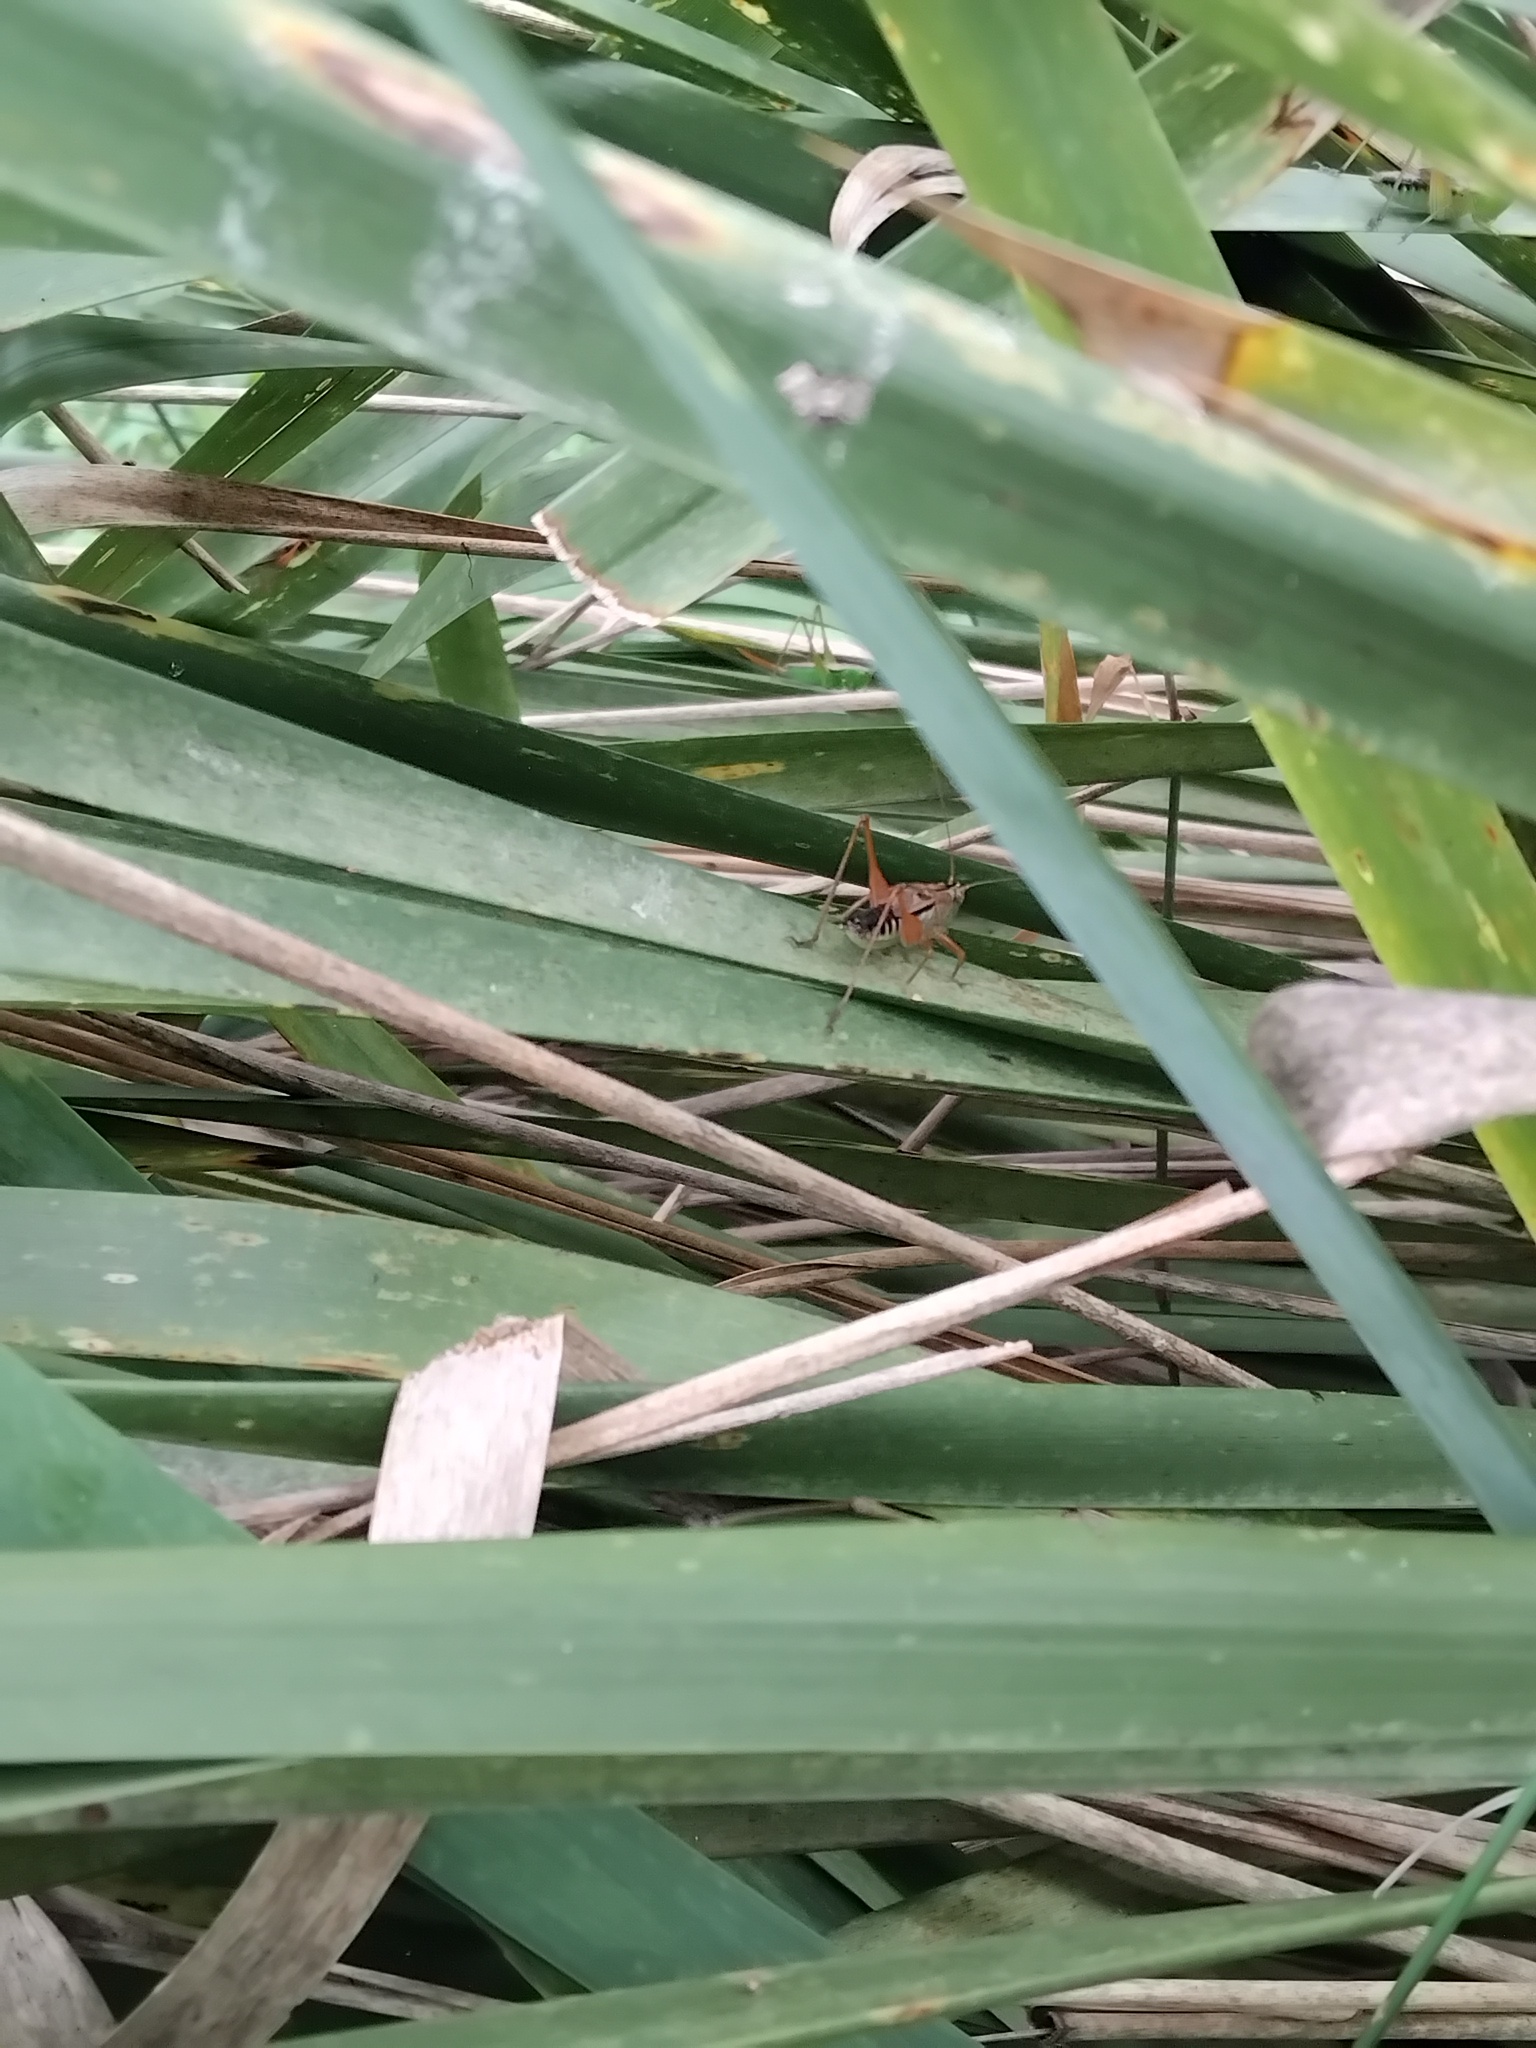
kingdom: Animalia
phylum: Arthropoda
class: Insecta
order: Orthoptera
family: Tettigoniidae
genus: Conocephalus
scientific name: Conocephalus semivittatus
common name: Blackish meadow katydid
